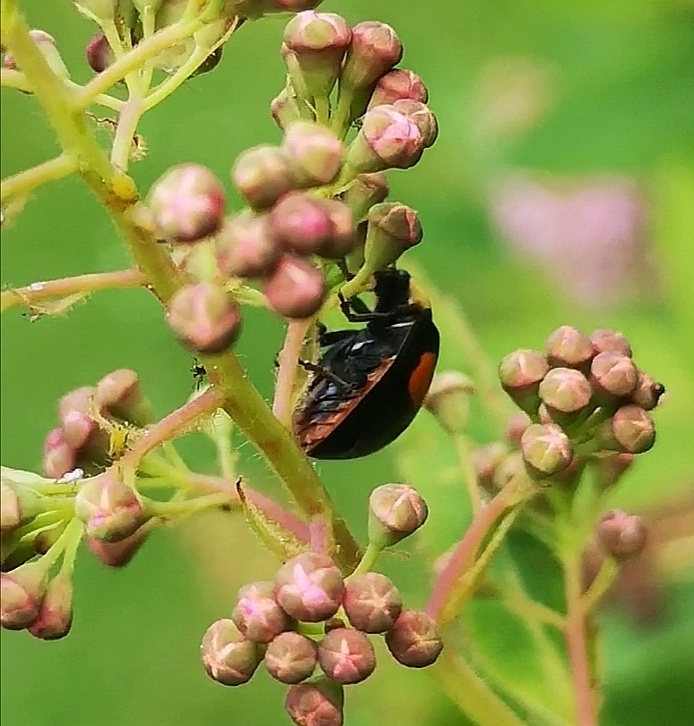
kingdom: Animalia
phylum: Arthropoda
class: Insecta
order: Coleoptera
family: Coccinellidae
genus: Harmonia
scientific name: Harmonia axyridis
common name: Harlequin ladybird
